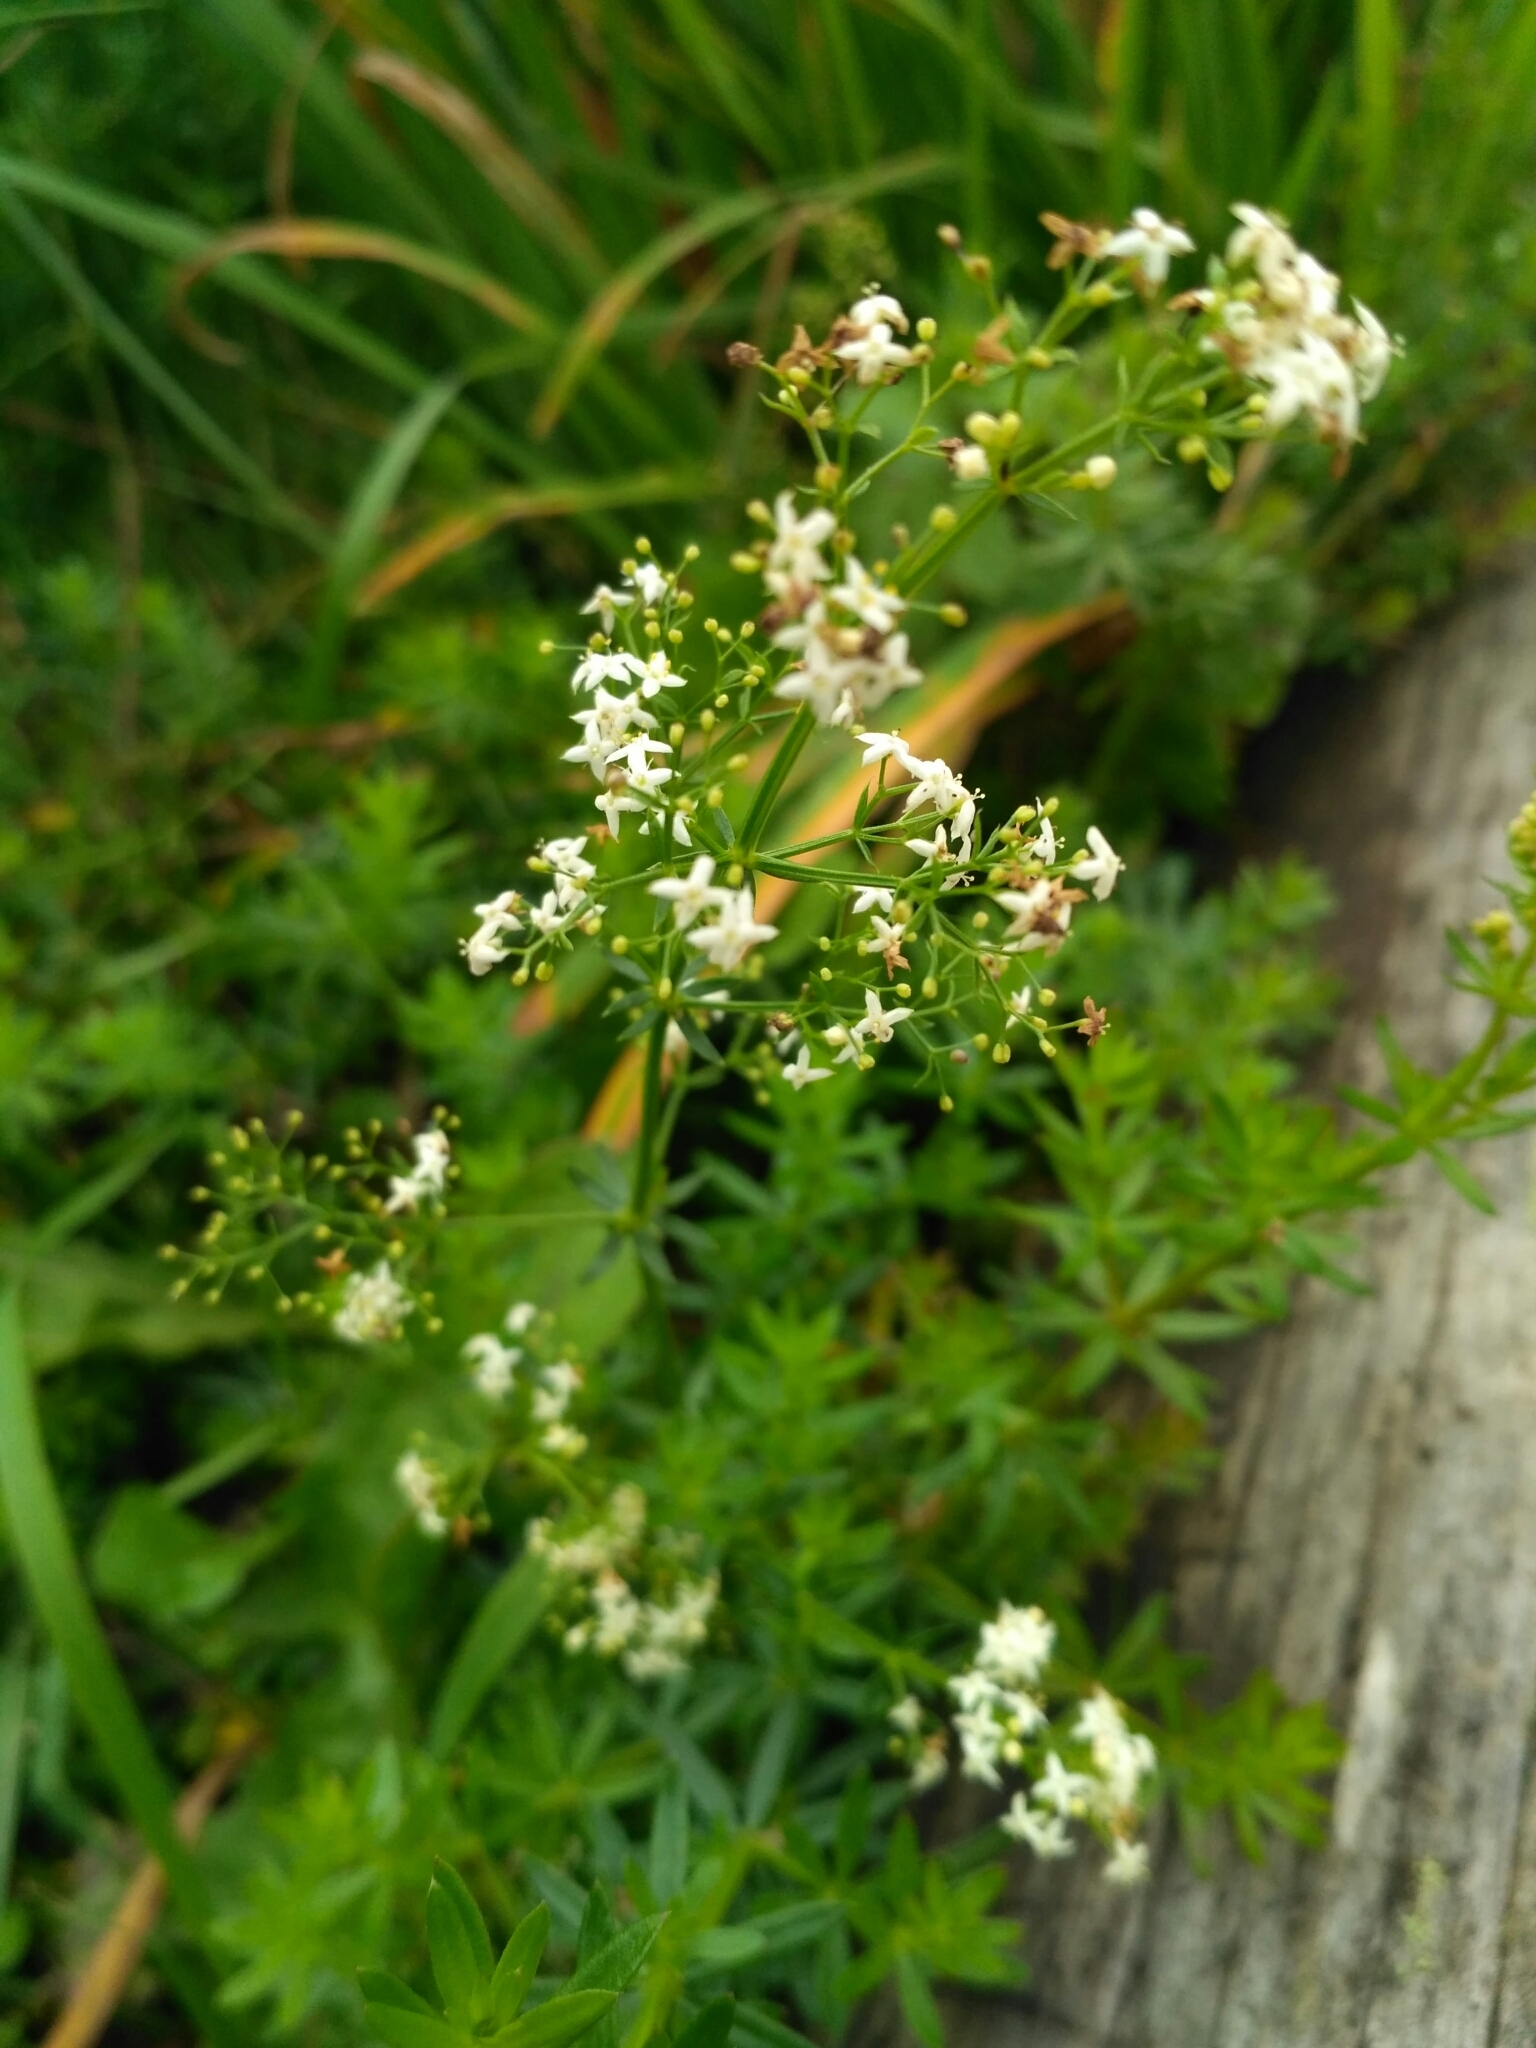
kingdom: Plantae
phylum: Tracheophyta
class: Magnoliopsida
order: Gentianales
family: Rubiaceae
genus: Galium
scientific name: Galium mollugo
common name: Hedge bedstraw
